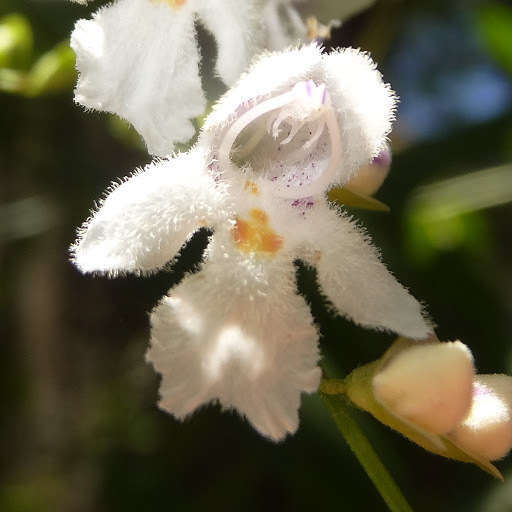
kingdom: Plantae
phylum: Tracheophyta
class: Magnoliopsida
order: Lamiales
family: Lamiaceae
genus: Prostanthera
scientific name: Prostanthera lasianthos
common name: Mountain-lilac
